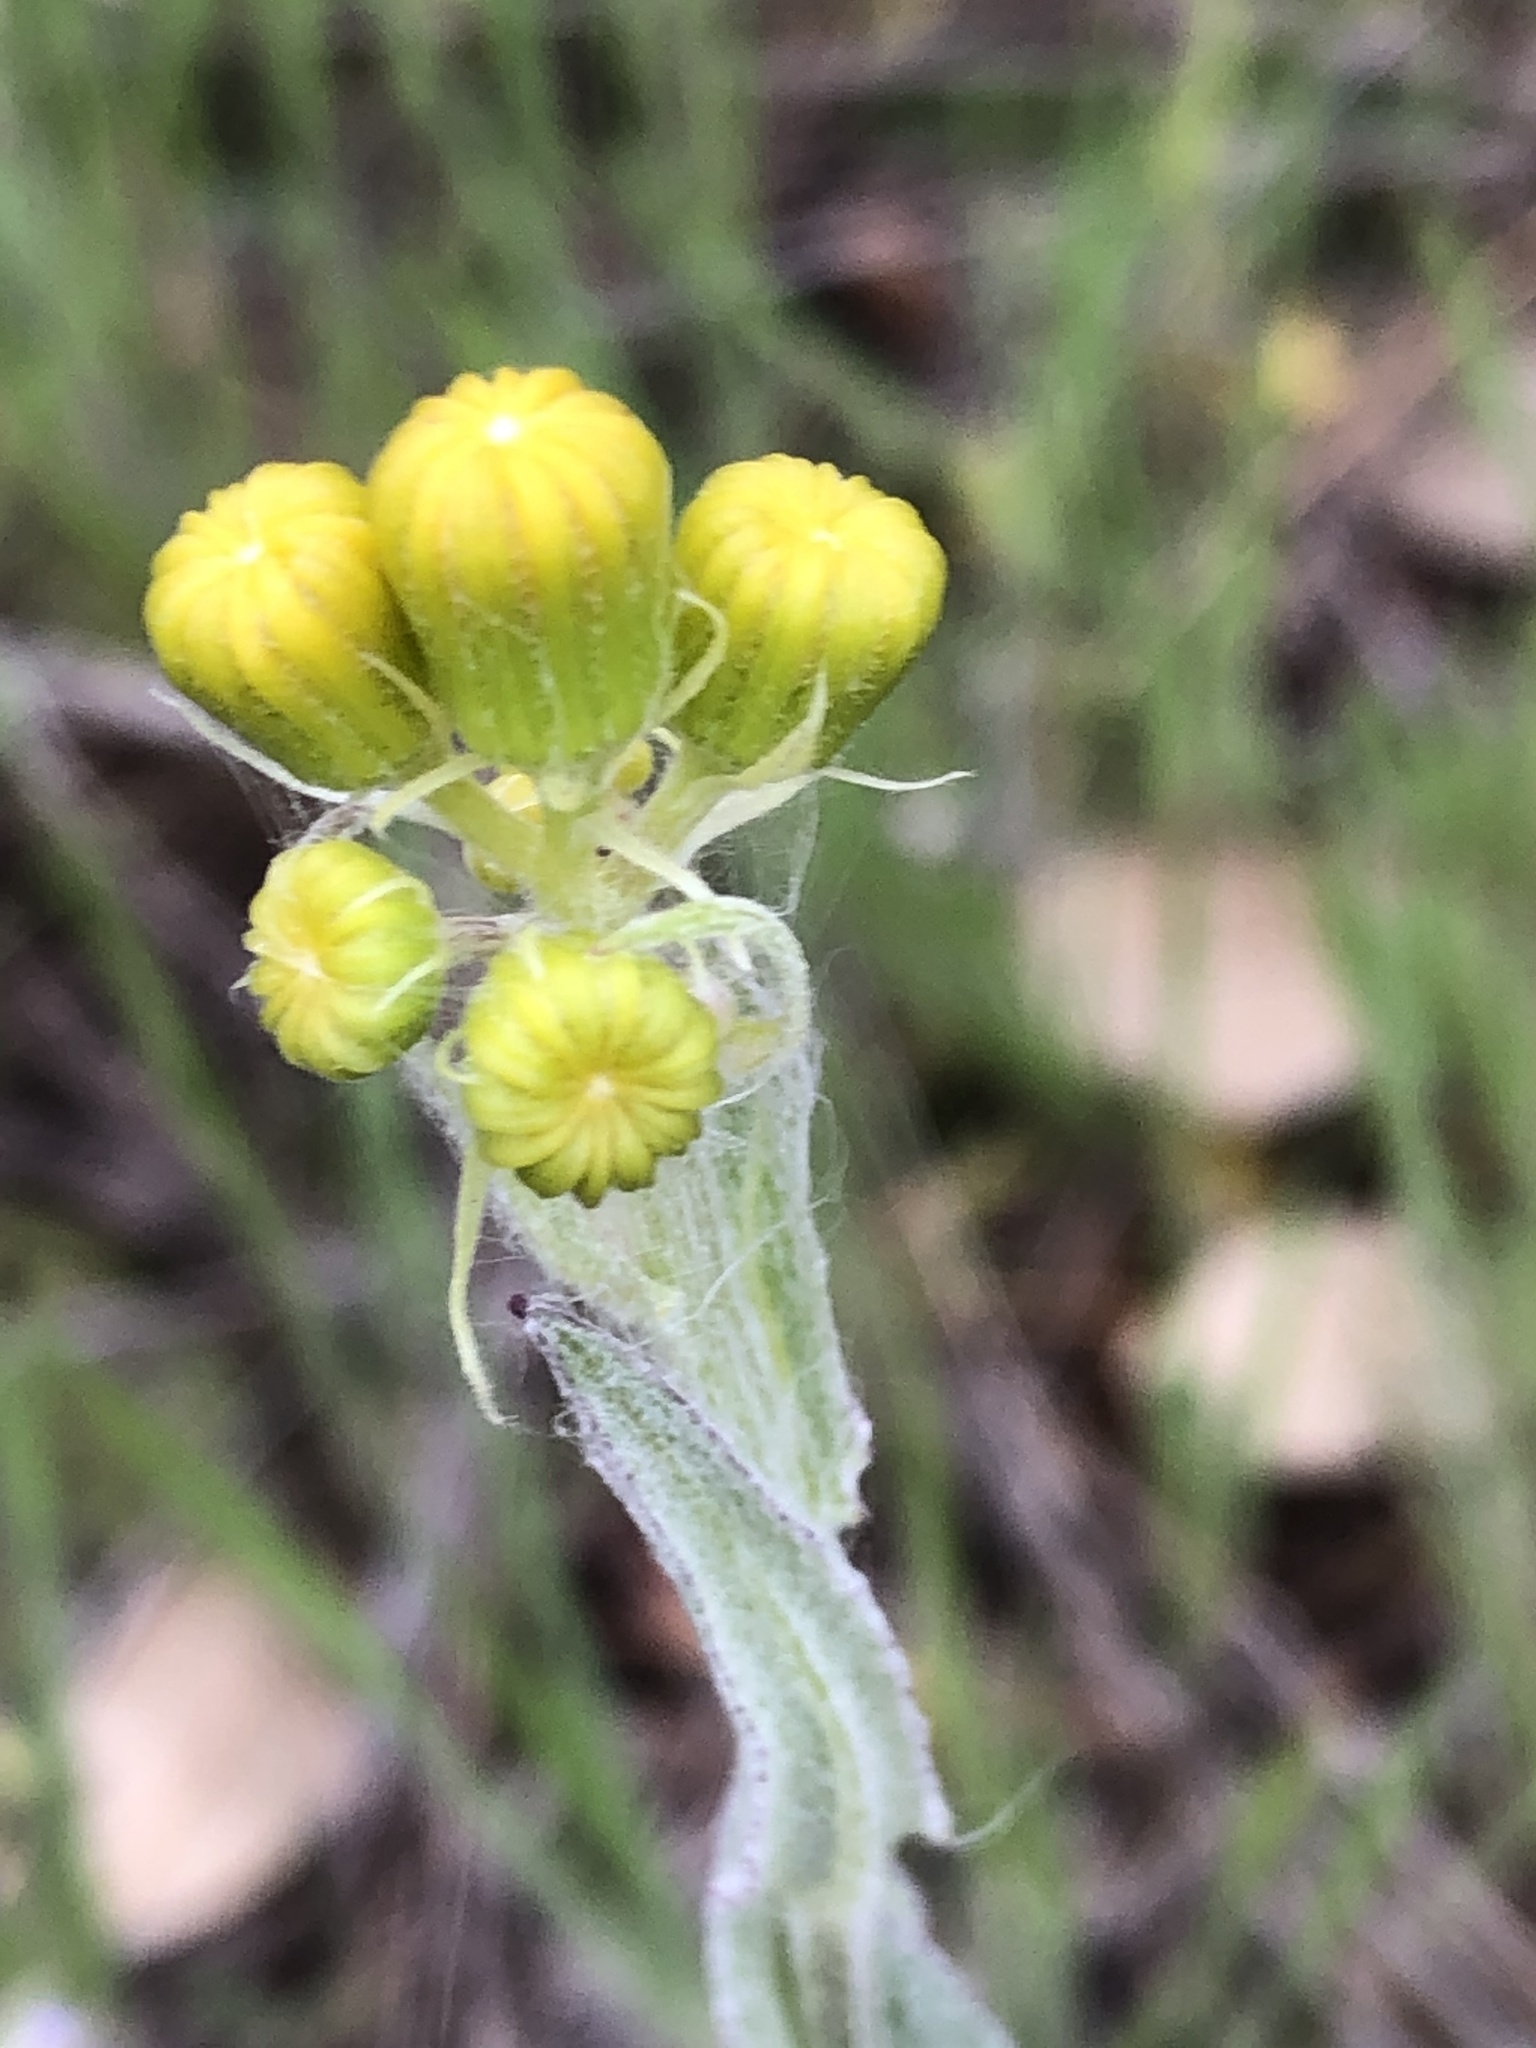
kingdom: Plantae
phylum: Tracheophyta
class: Magnoliopsida
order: Asterales
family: Asteraceae
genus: Senecio
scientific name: Senecio ampullaceus
